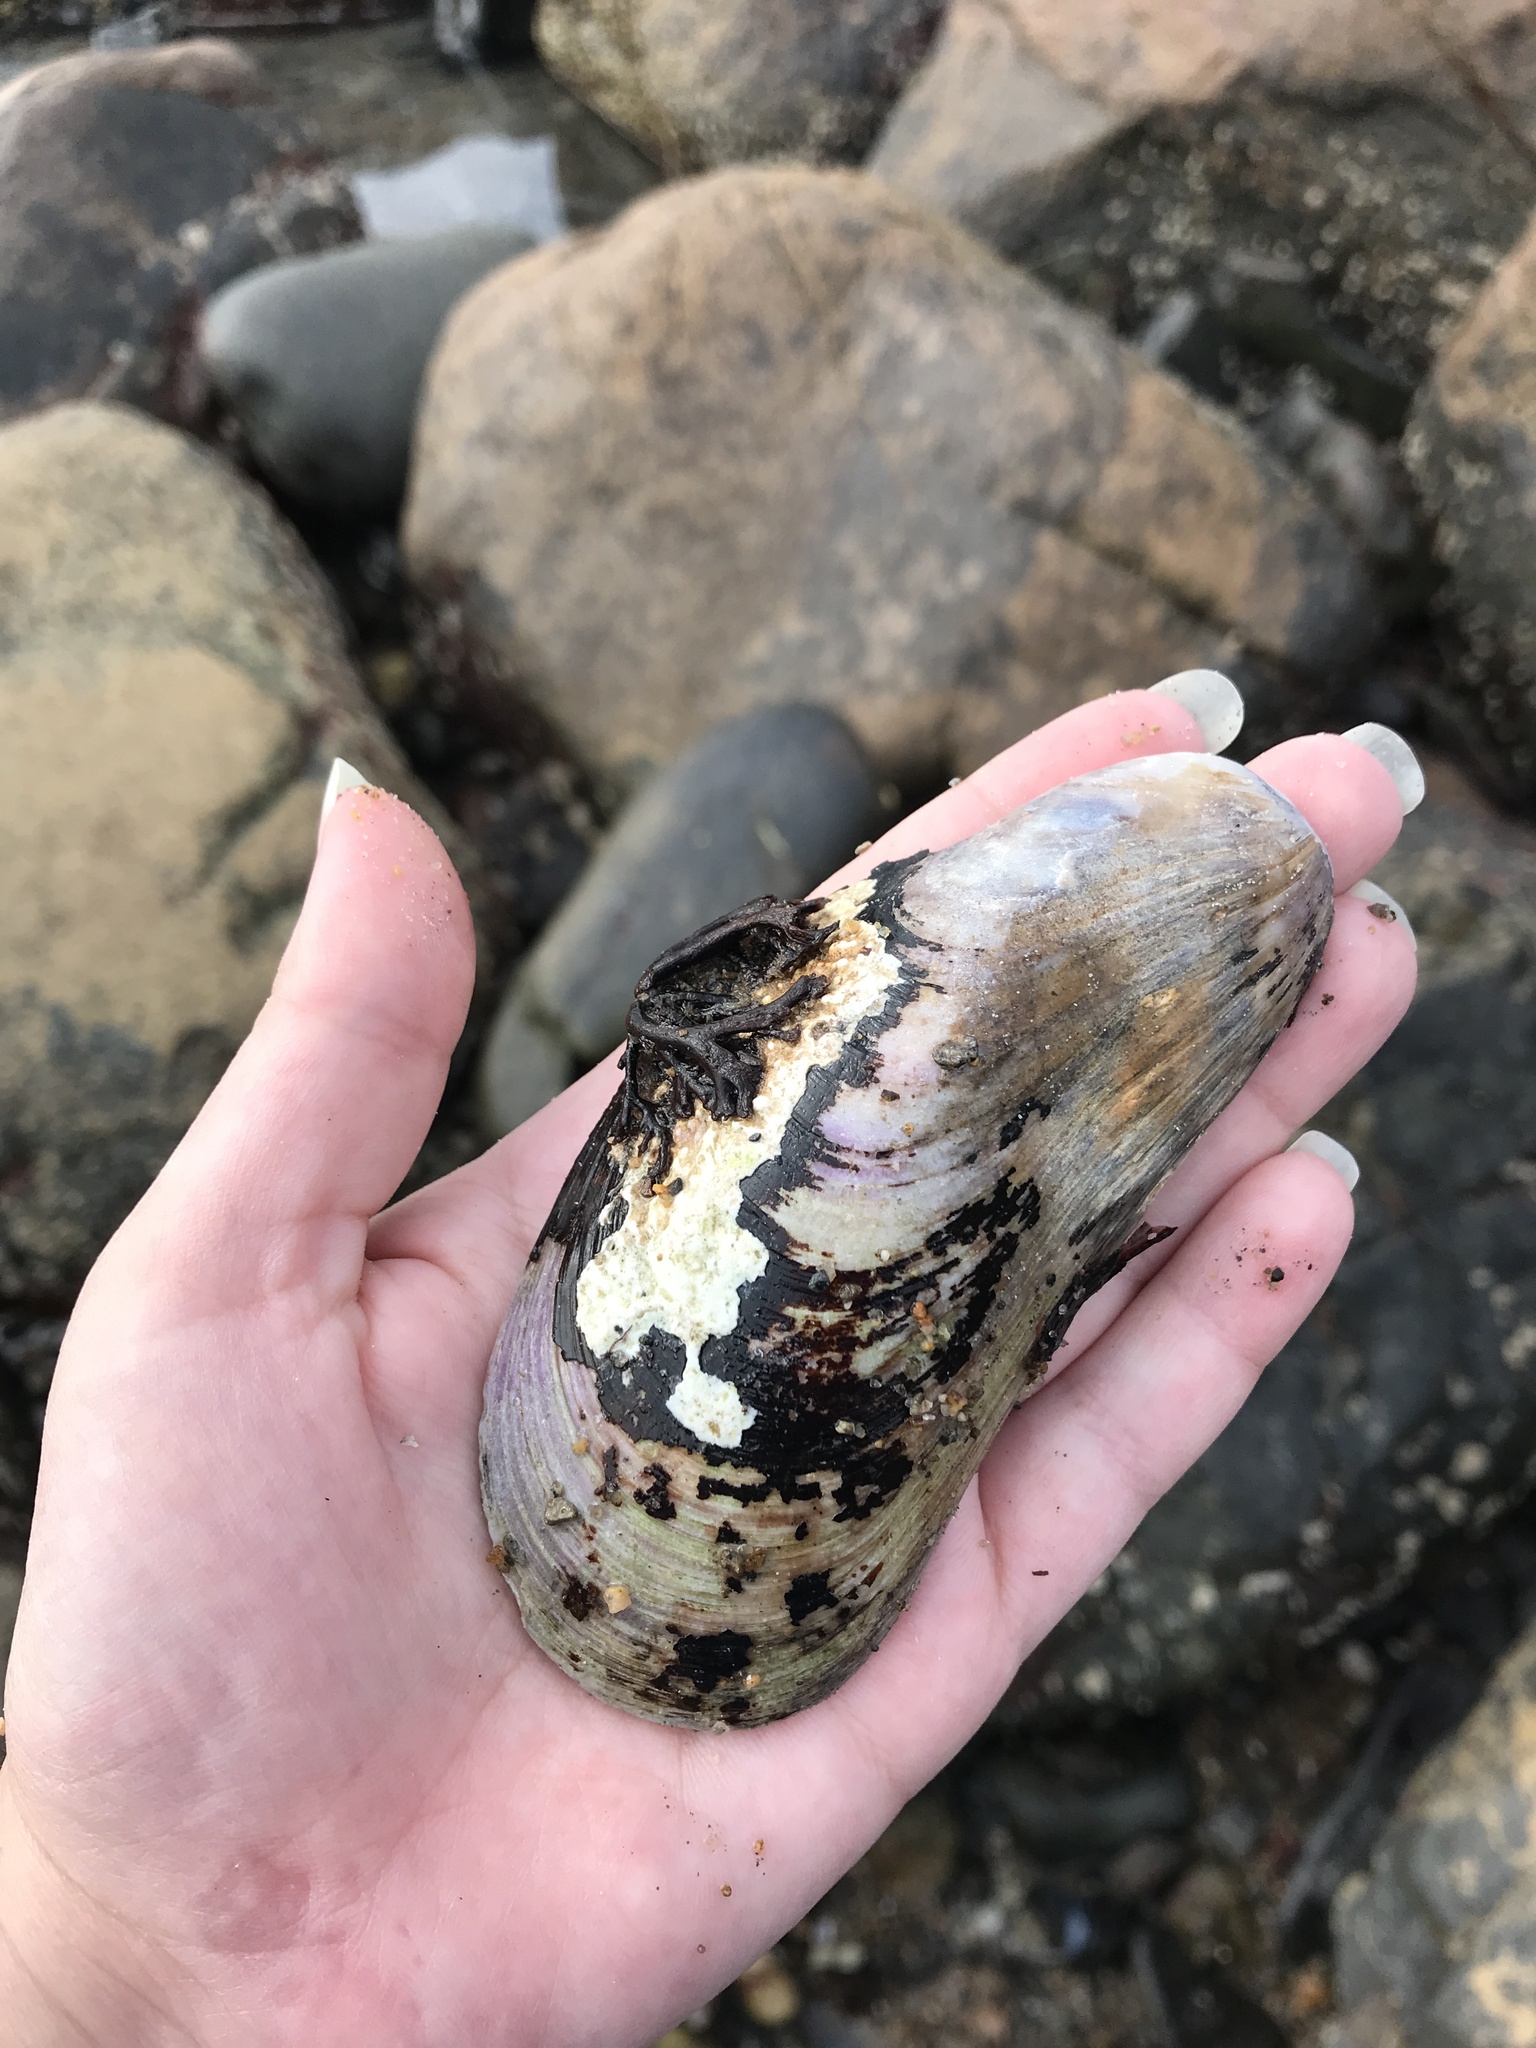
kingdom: Animalia
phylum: Mollusca
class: Bivalvia
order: Mytilida
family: Mytilidae
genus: Modiolus
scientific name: Modiolus modiolus
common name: Horse-mussel
